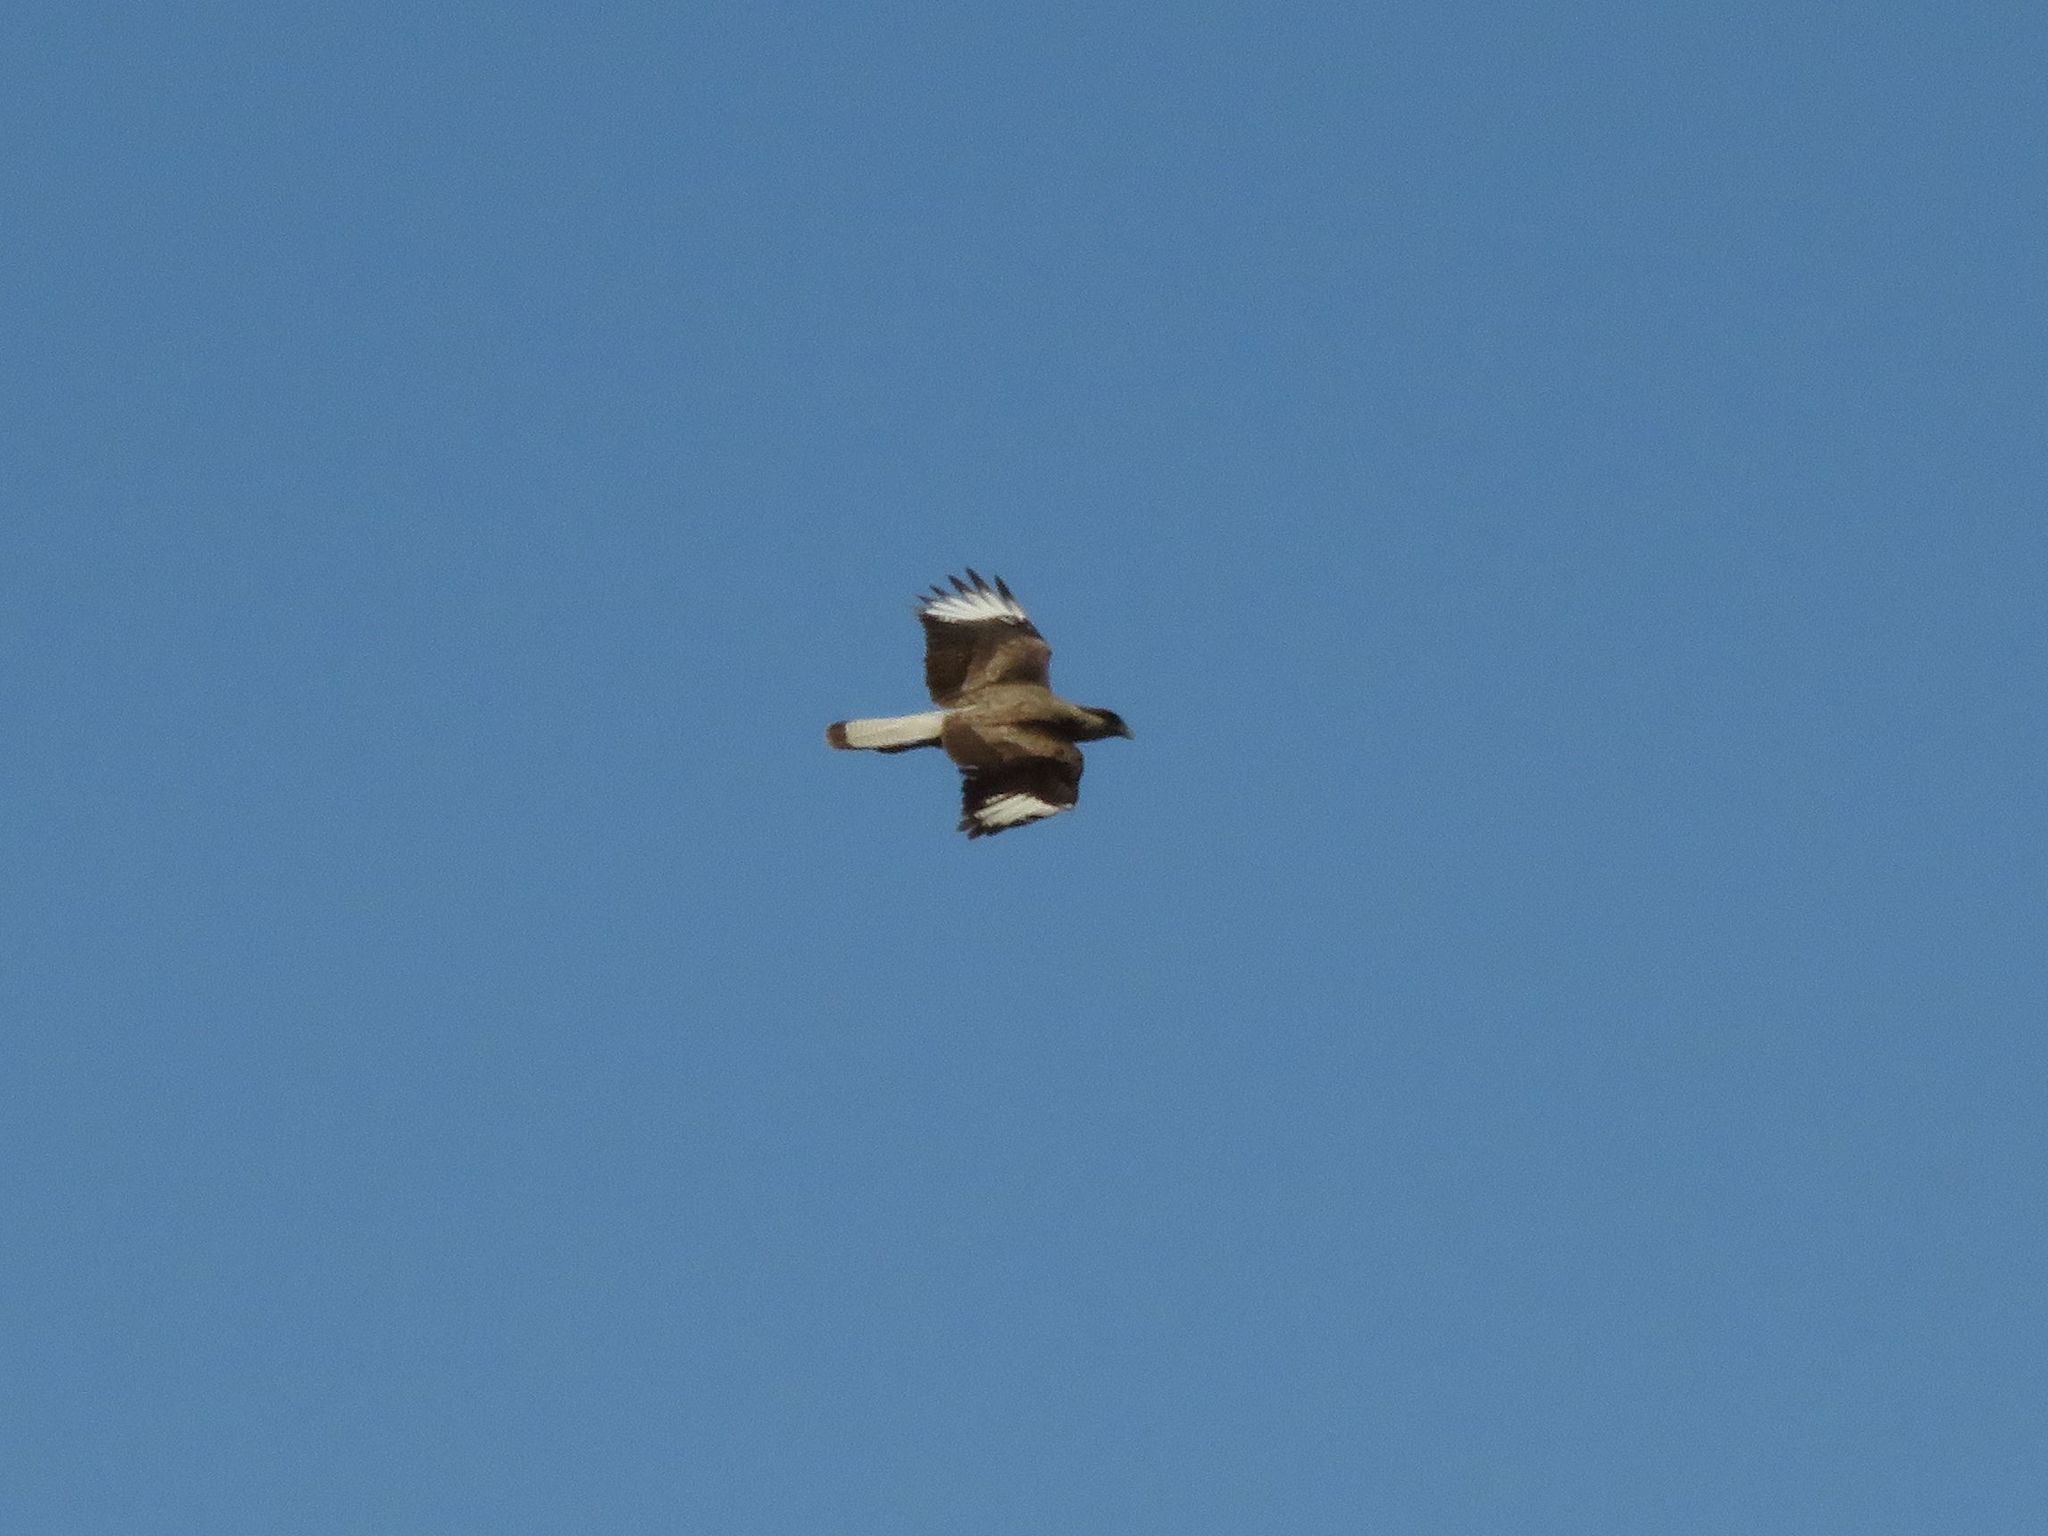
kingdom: Animalia
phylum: Chordata
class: Aves
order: Falconiformes
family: Falconidae
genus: Caracara
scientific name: Caracara plancus
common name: Southern caracara
